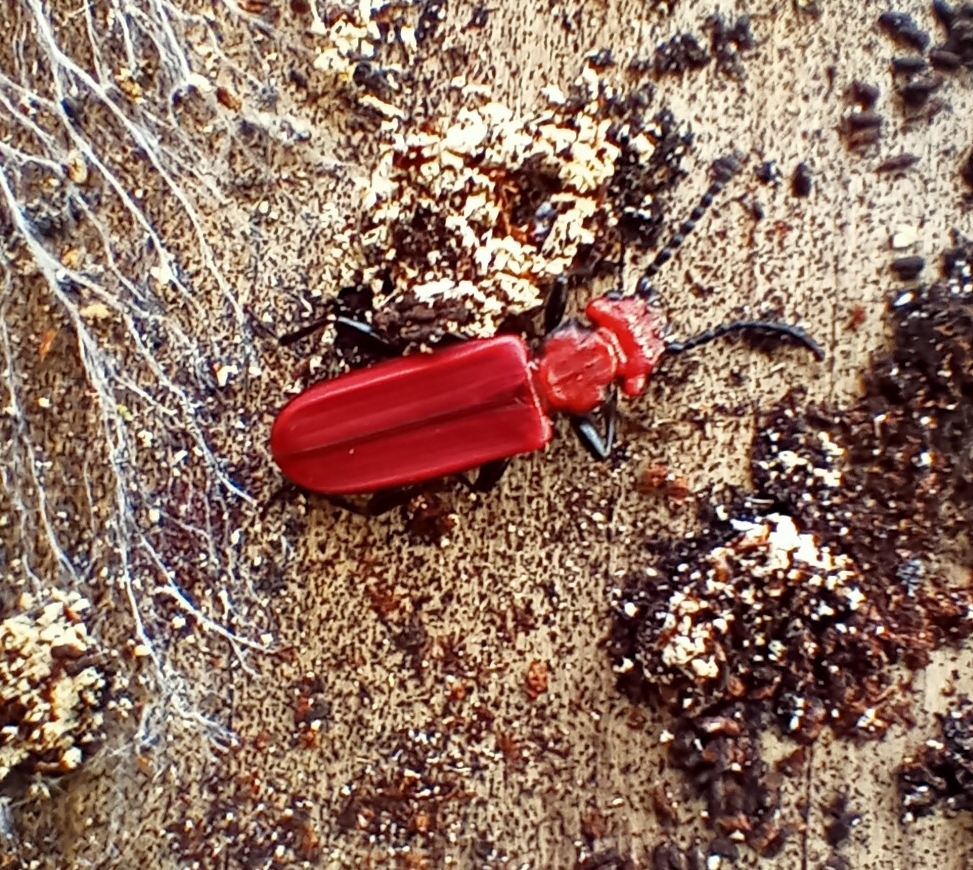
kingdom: Animalia
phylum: Arthropoda
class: Insecta
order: Coleoptera
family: Cucujidae
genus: Cucujus
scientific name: Cucujus cinnaberinus
